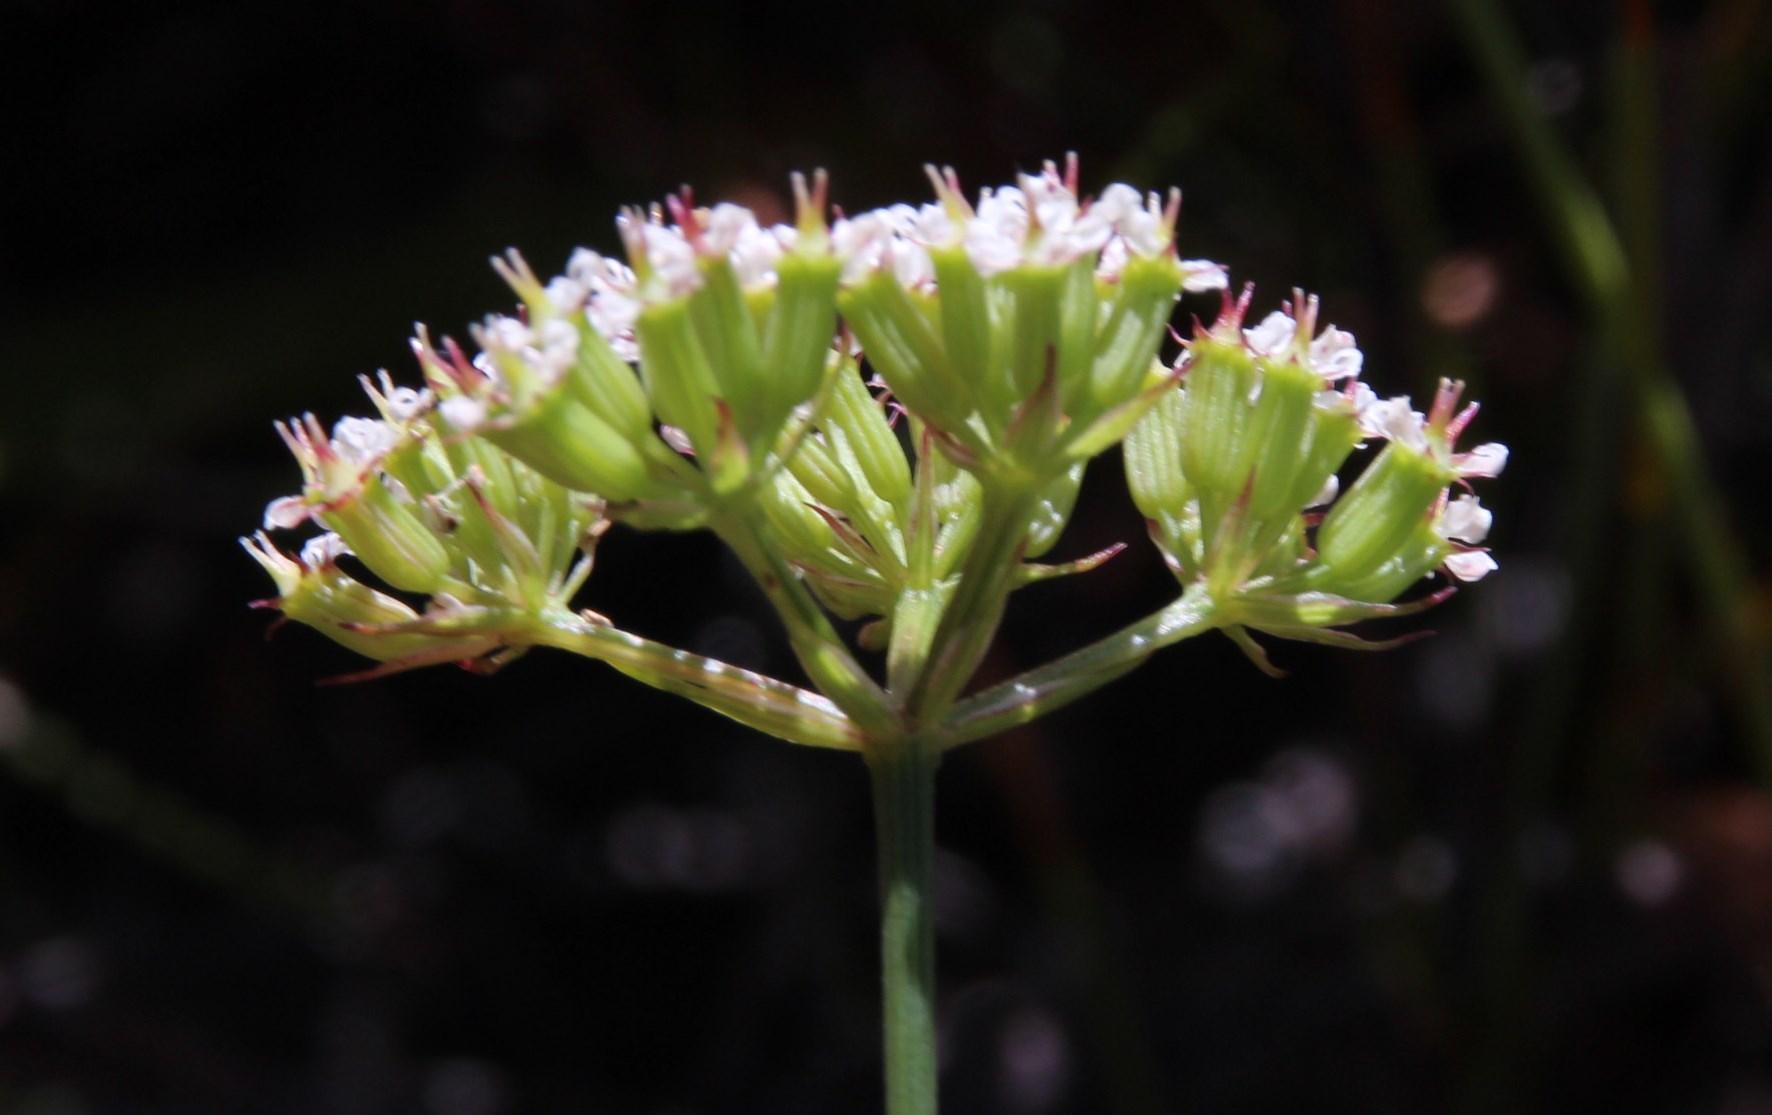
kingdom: Plantae
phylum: Tracheophyta
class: Magnoliopsida
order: Apiales
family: Apiaceae
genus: Itasina
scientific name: Itasina filifolia
